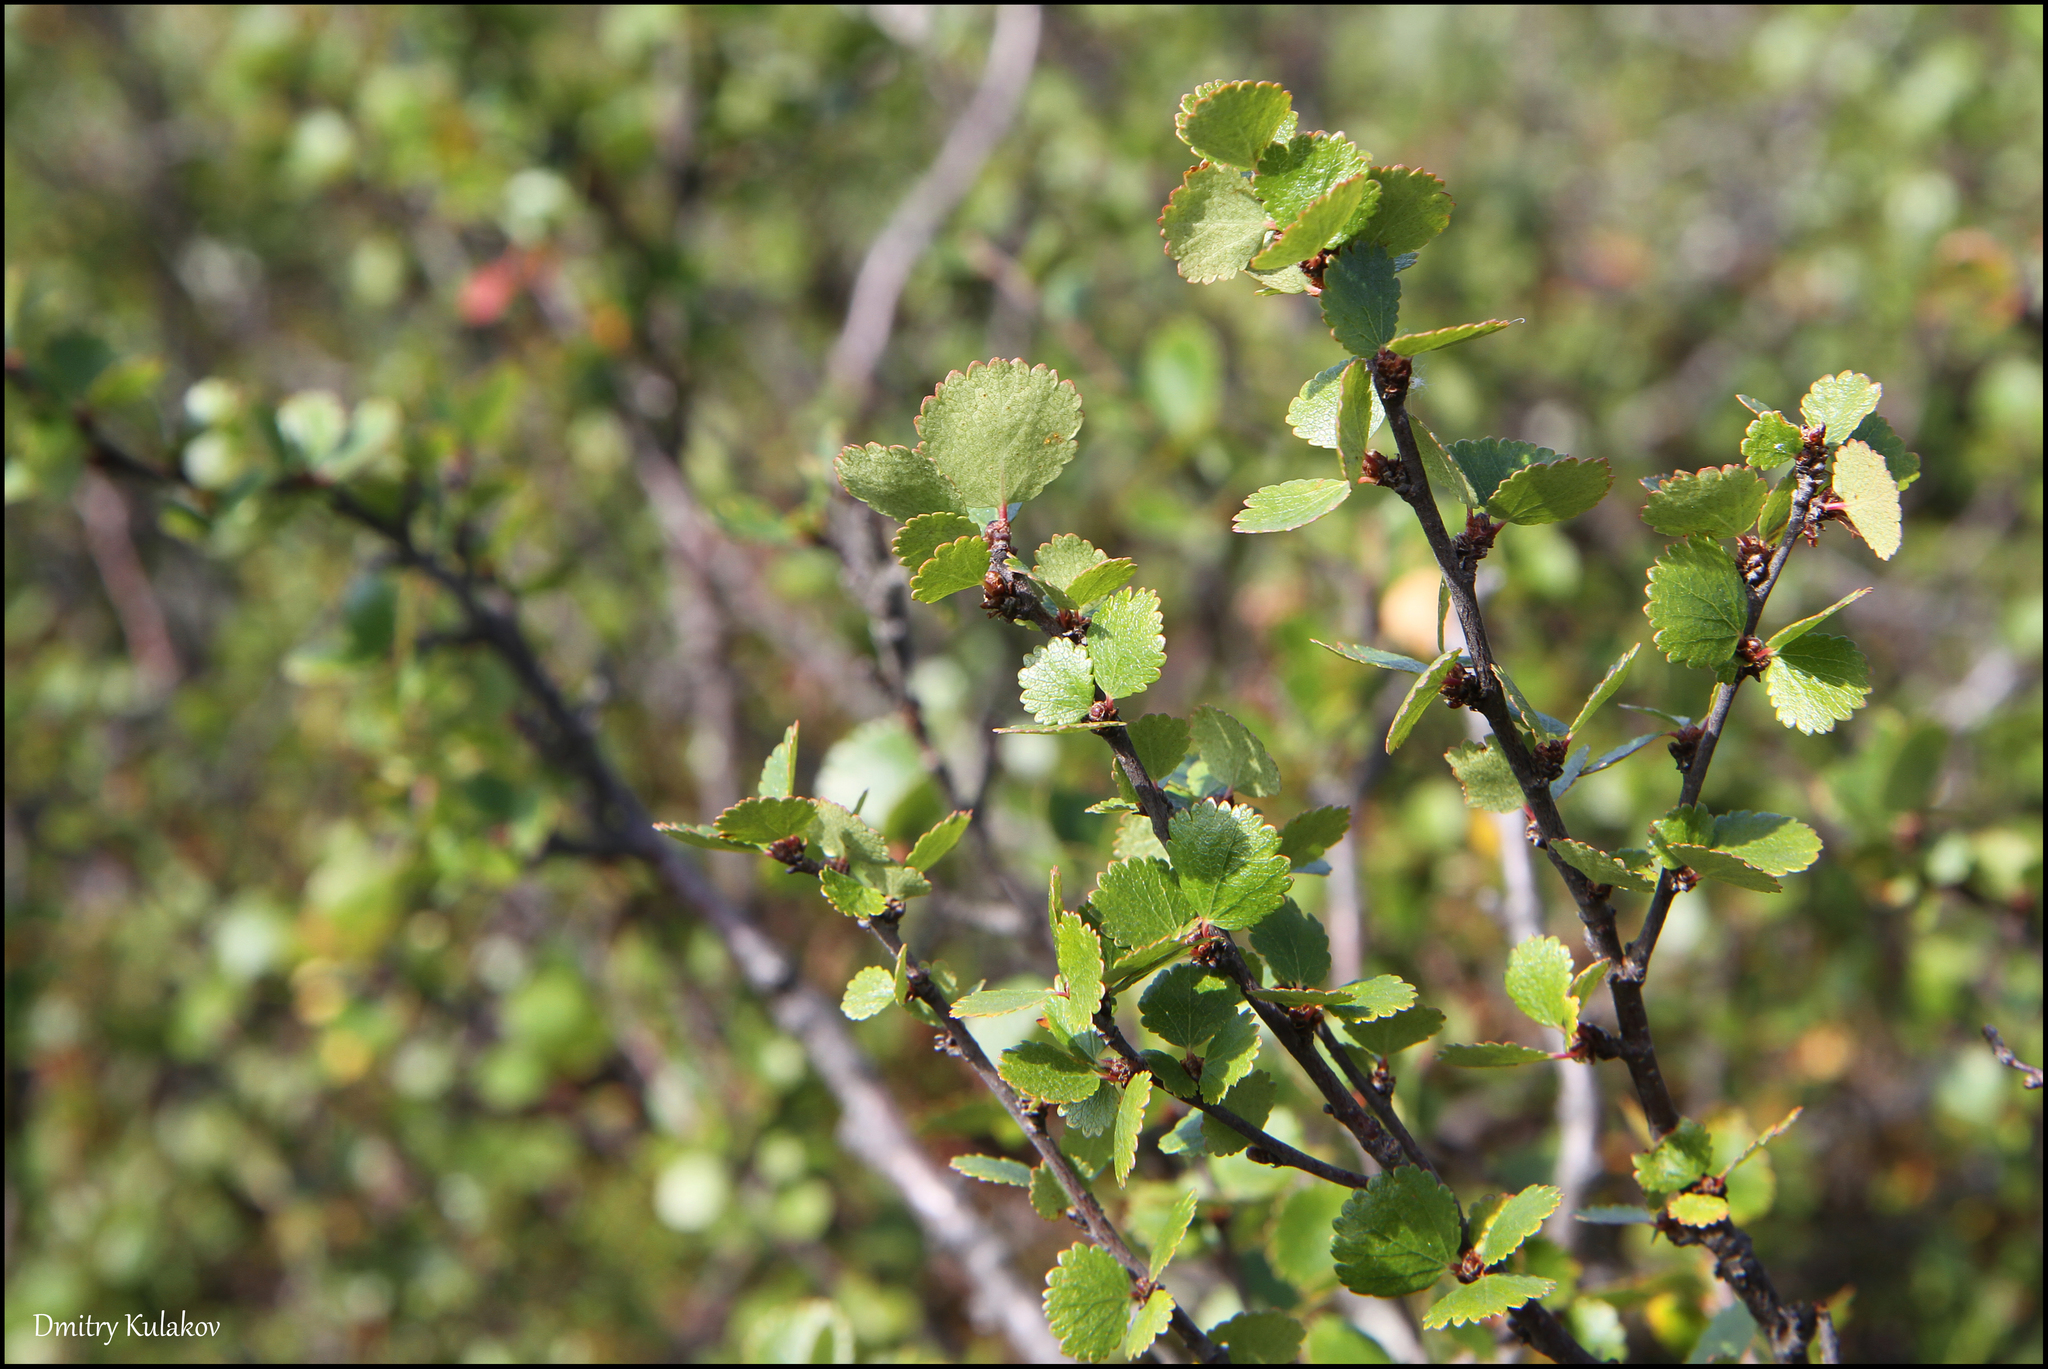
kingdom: Plantae
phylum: Tracheophyta
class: Magnoliopsida
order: Fagales
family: Betulaceae
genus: Betula
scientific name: Betula nana
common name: Arctic dwarf birch
